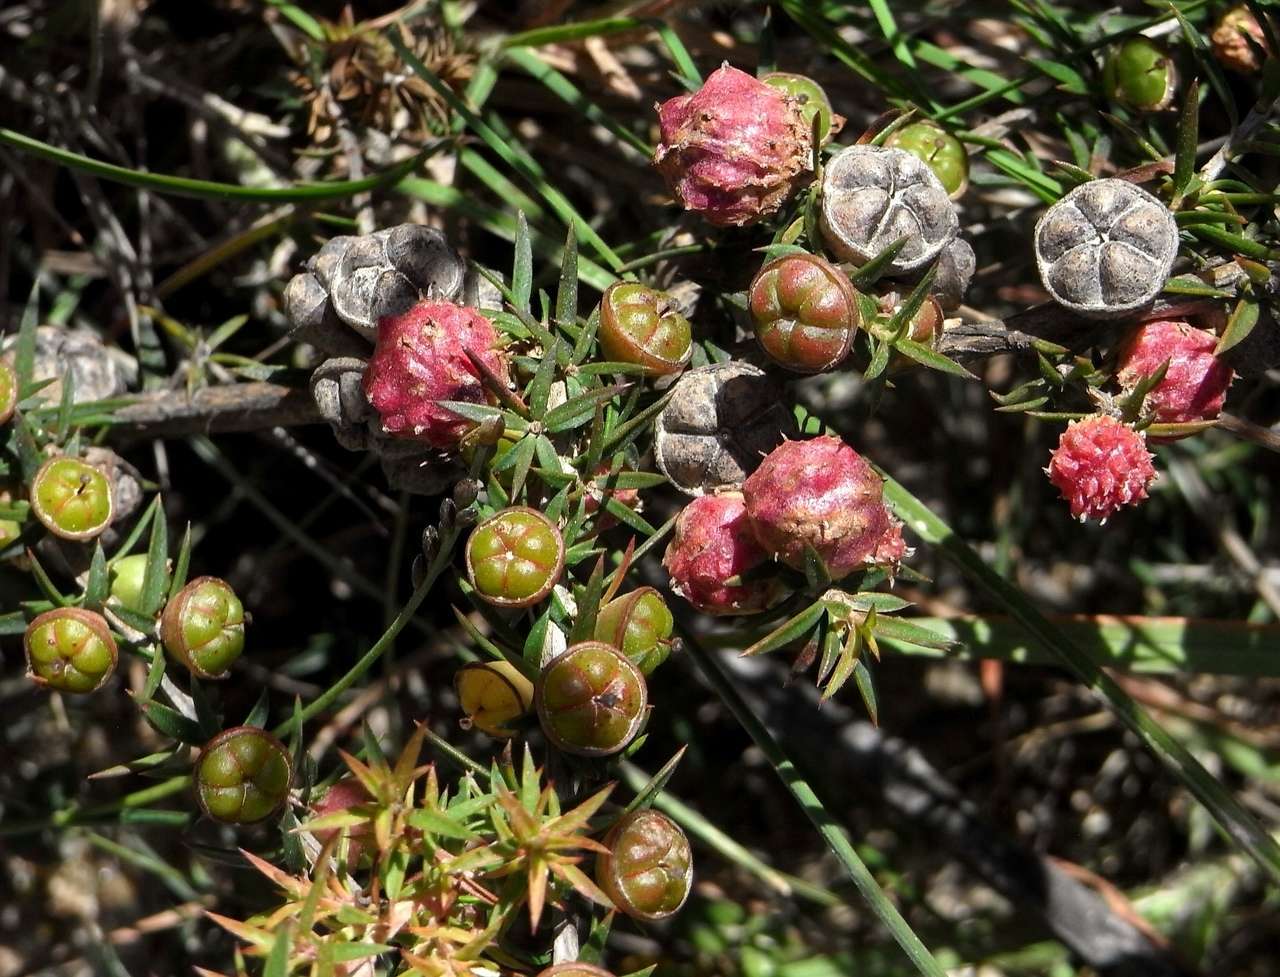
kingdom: Plantae
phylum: Tracheophyta
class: Magnoliopsida
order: Myrtales
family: Myrtaceae
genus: Leptospermum
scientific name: Leptospermum continentale
